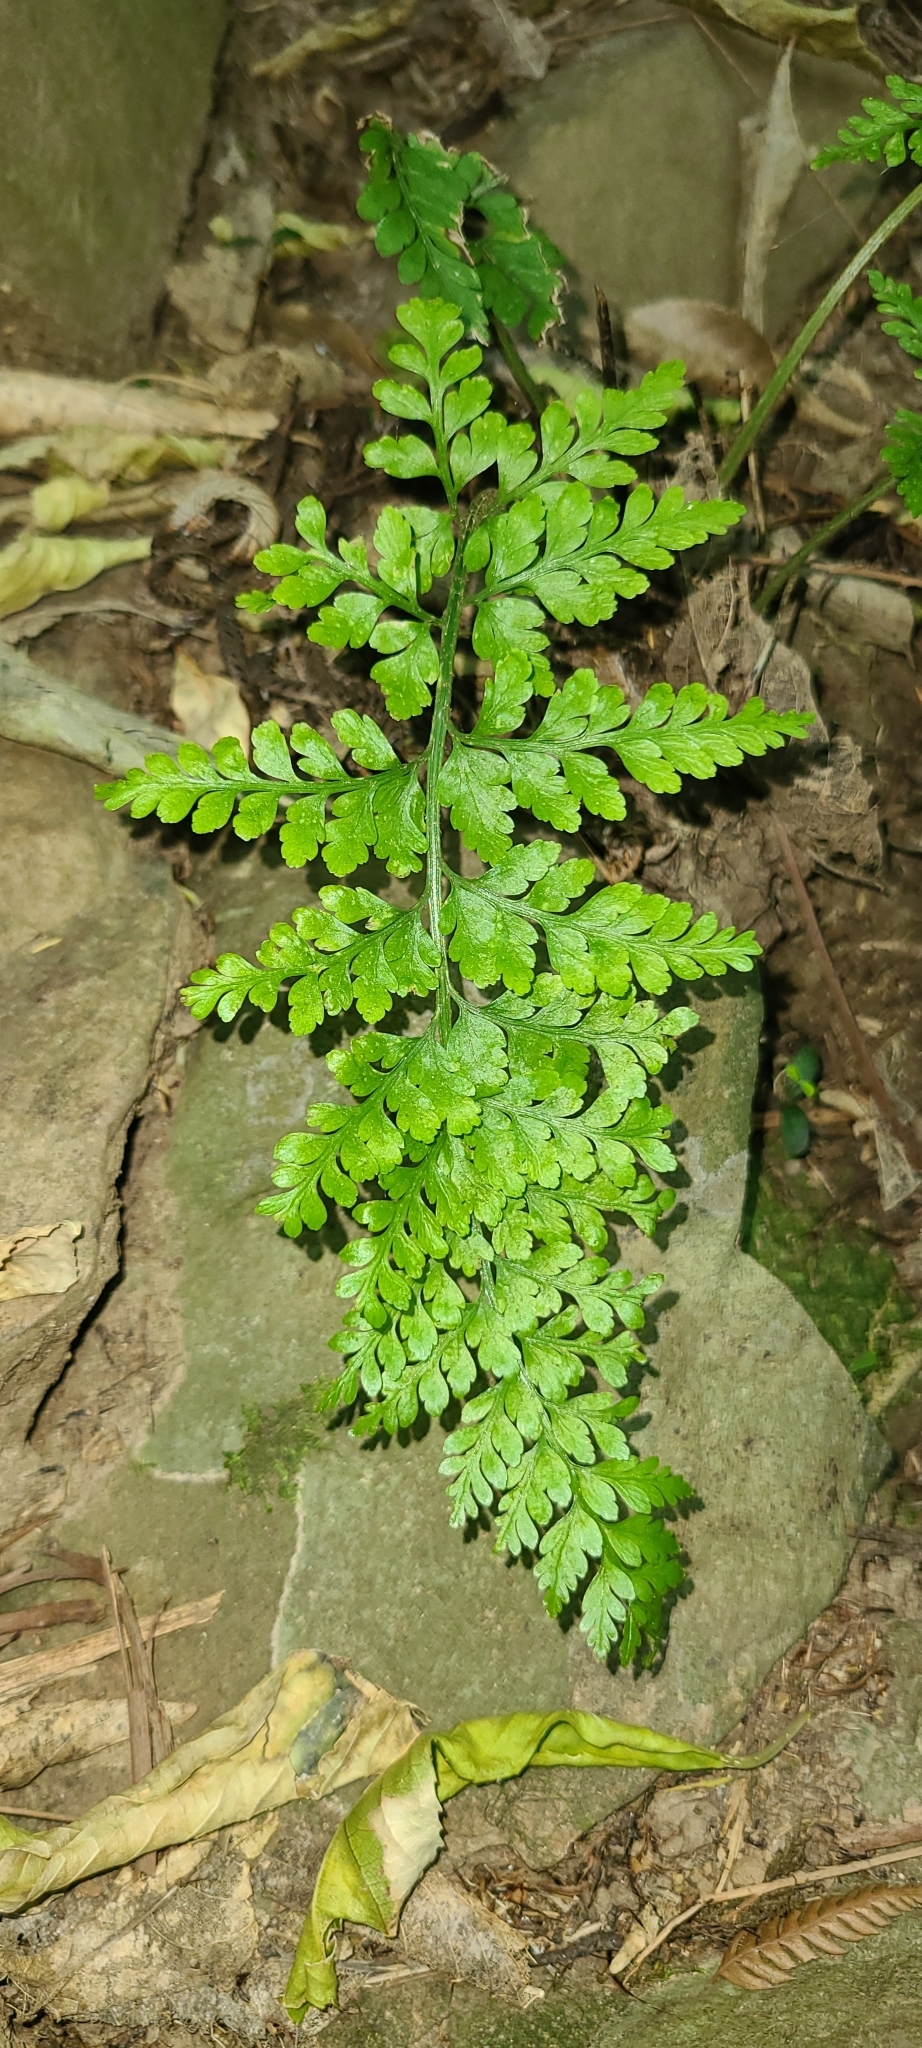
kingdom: Plantae
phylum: Tracheophyta
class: Polypodiopsida
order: Polypodiales
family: Aspleniaceae
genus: Asplenium
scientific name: Asplenium
